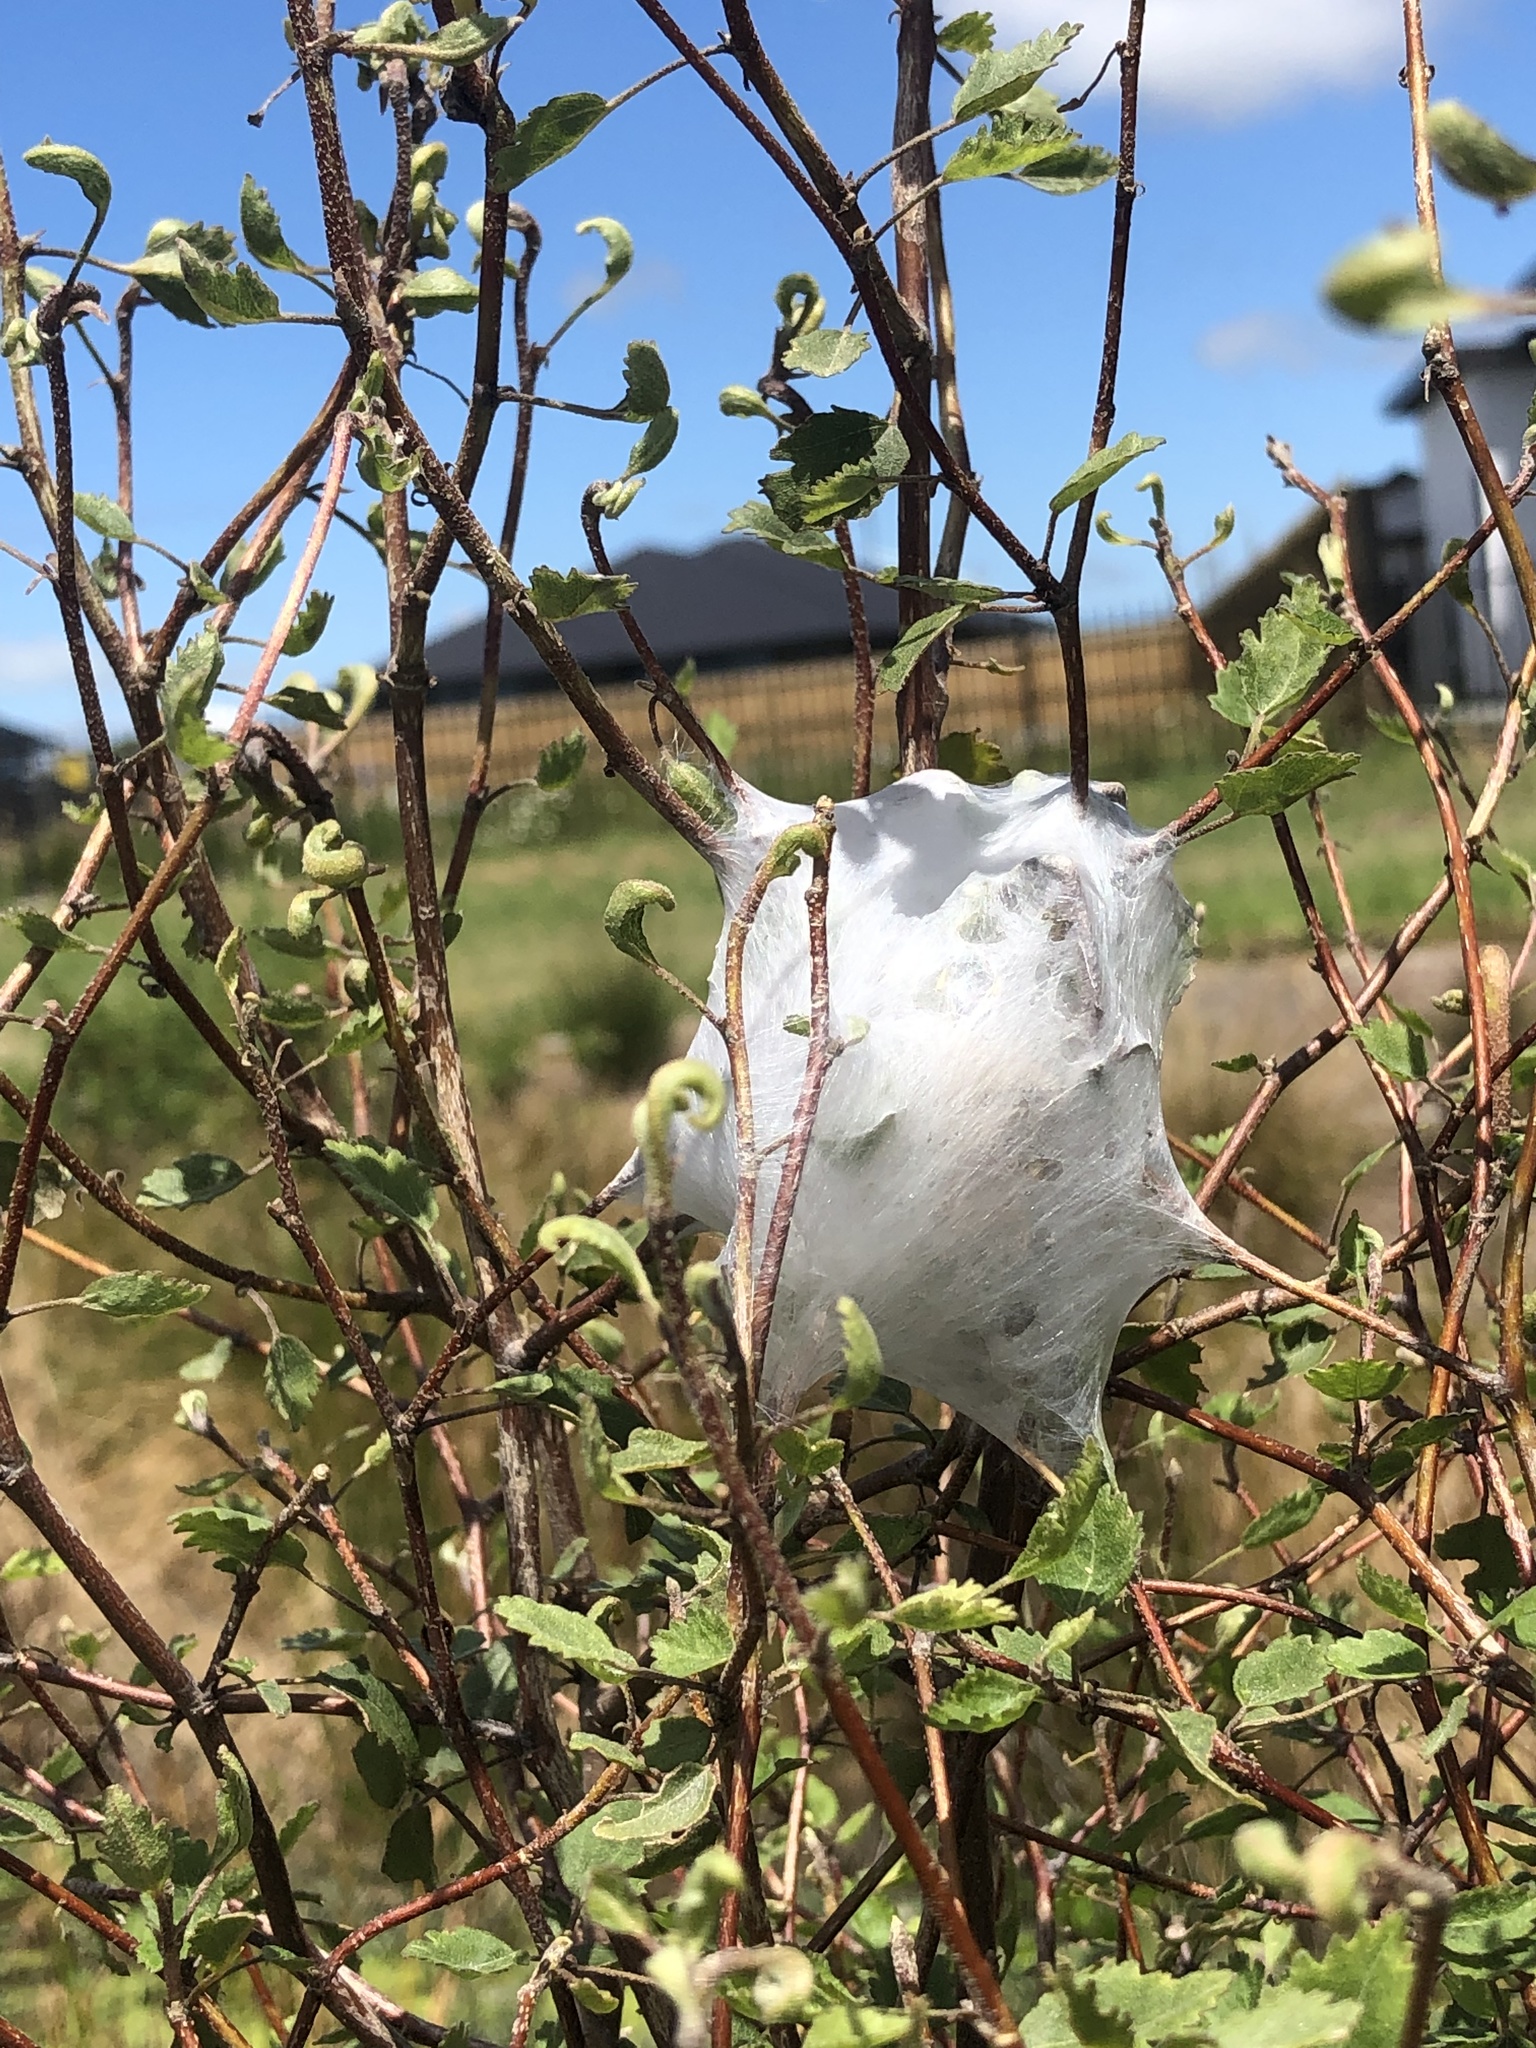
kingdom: Animalia
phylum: Arthropoda
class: Arachnida
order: Araneae
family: Pisauridae
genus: Dolomedes
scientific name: Dolomedes minor
